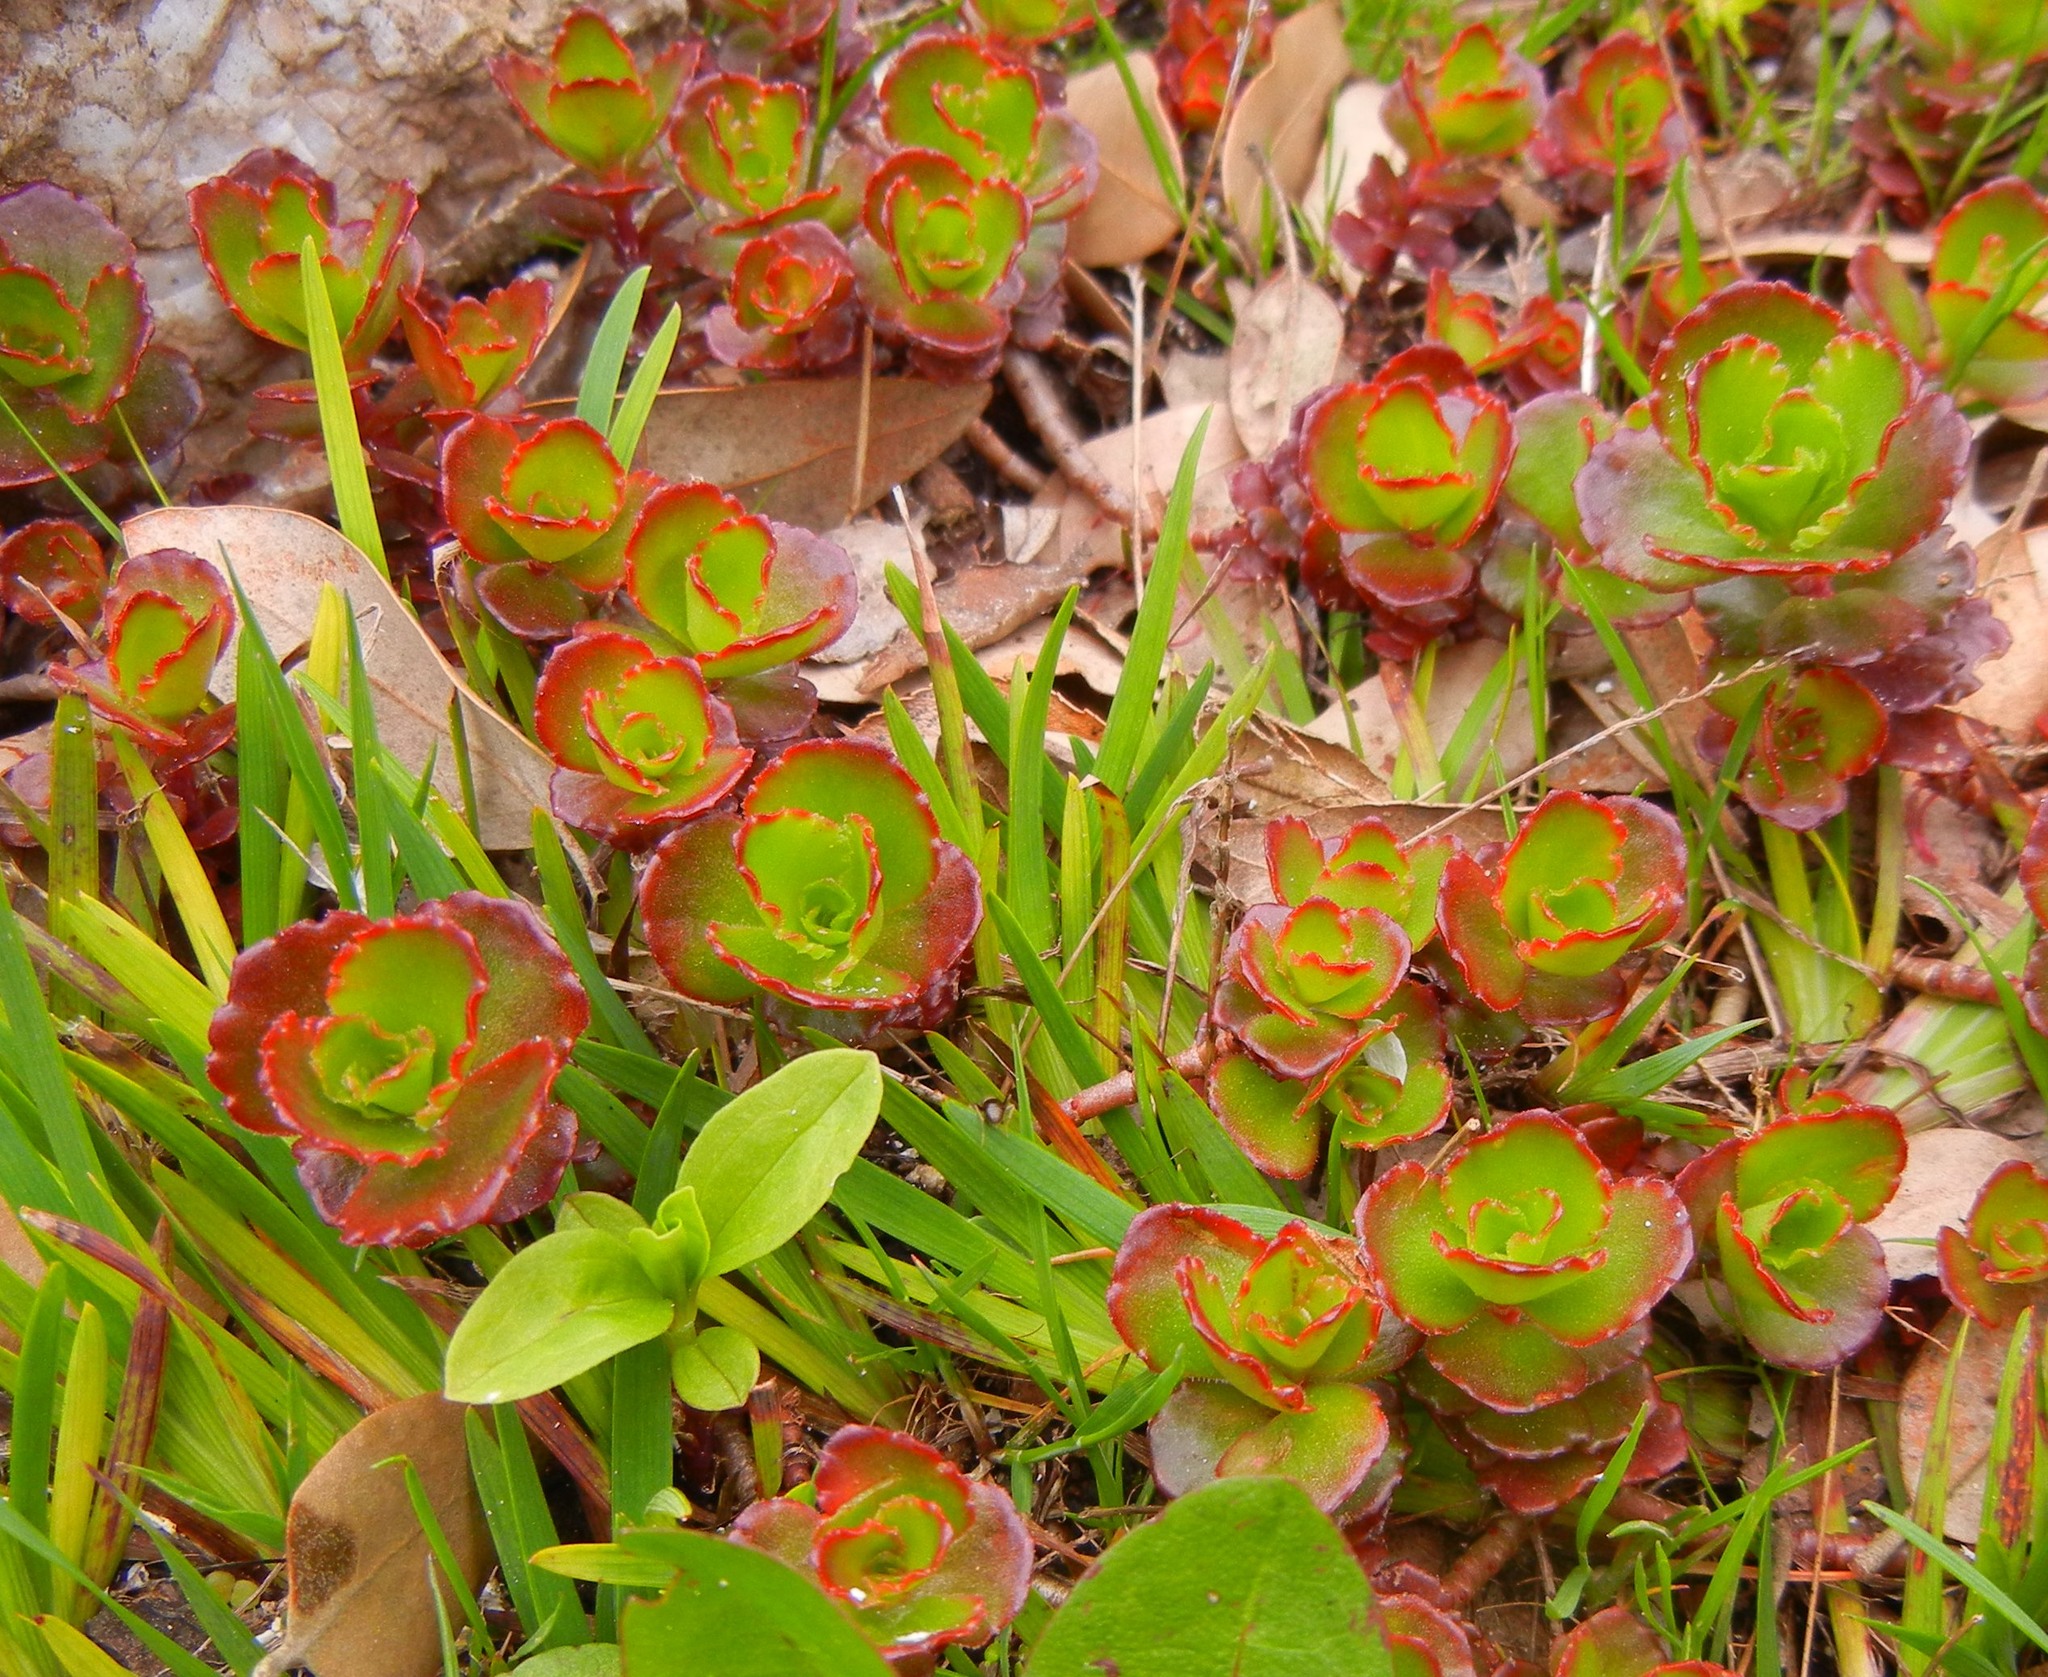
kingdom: Plantae
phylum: Tracheophyta
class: Magnoliopsida
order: Saxifragales
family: Crassulaceae
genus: Phedimus
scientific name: Phedimus spurius
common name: Caucasian stonecrop
